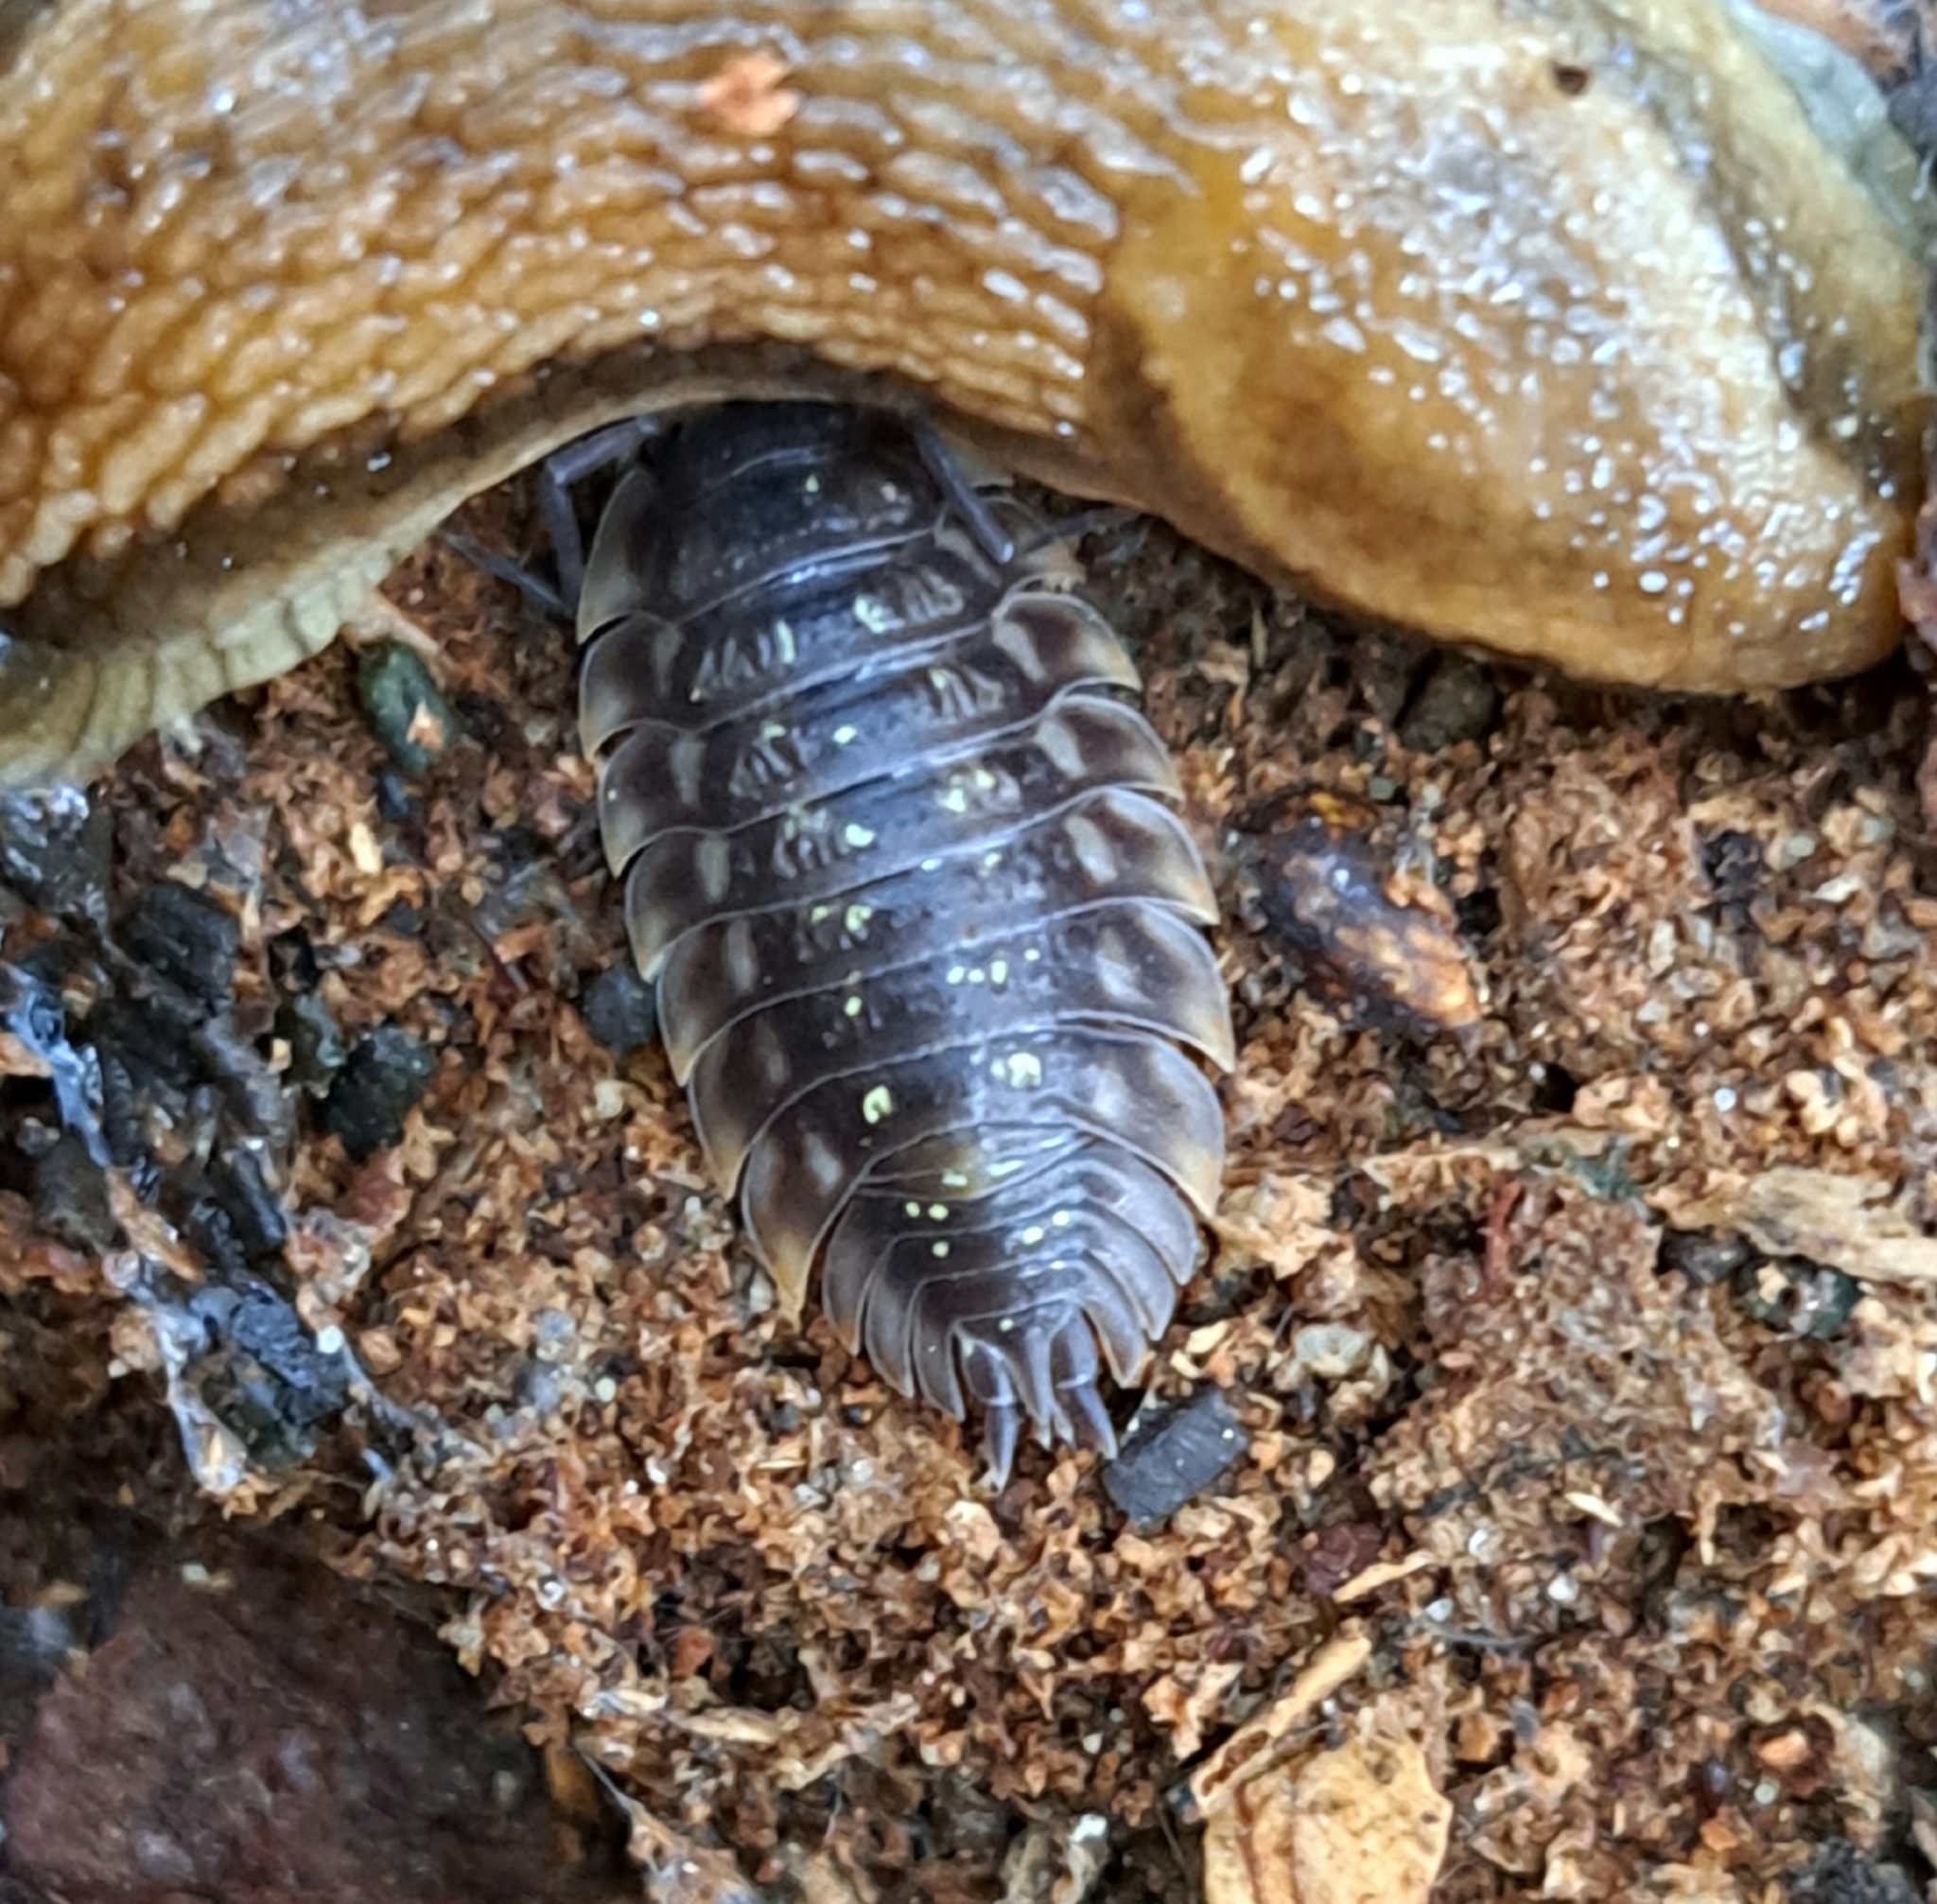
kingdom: Animalia
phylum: Arthropoda
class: Malacostraca
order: Isopoda
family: Oniscidae
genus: Oniscus
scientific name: Oniscus asellus
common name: Common shiny woodlouse
